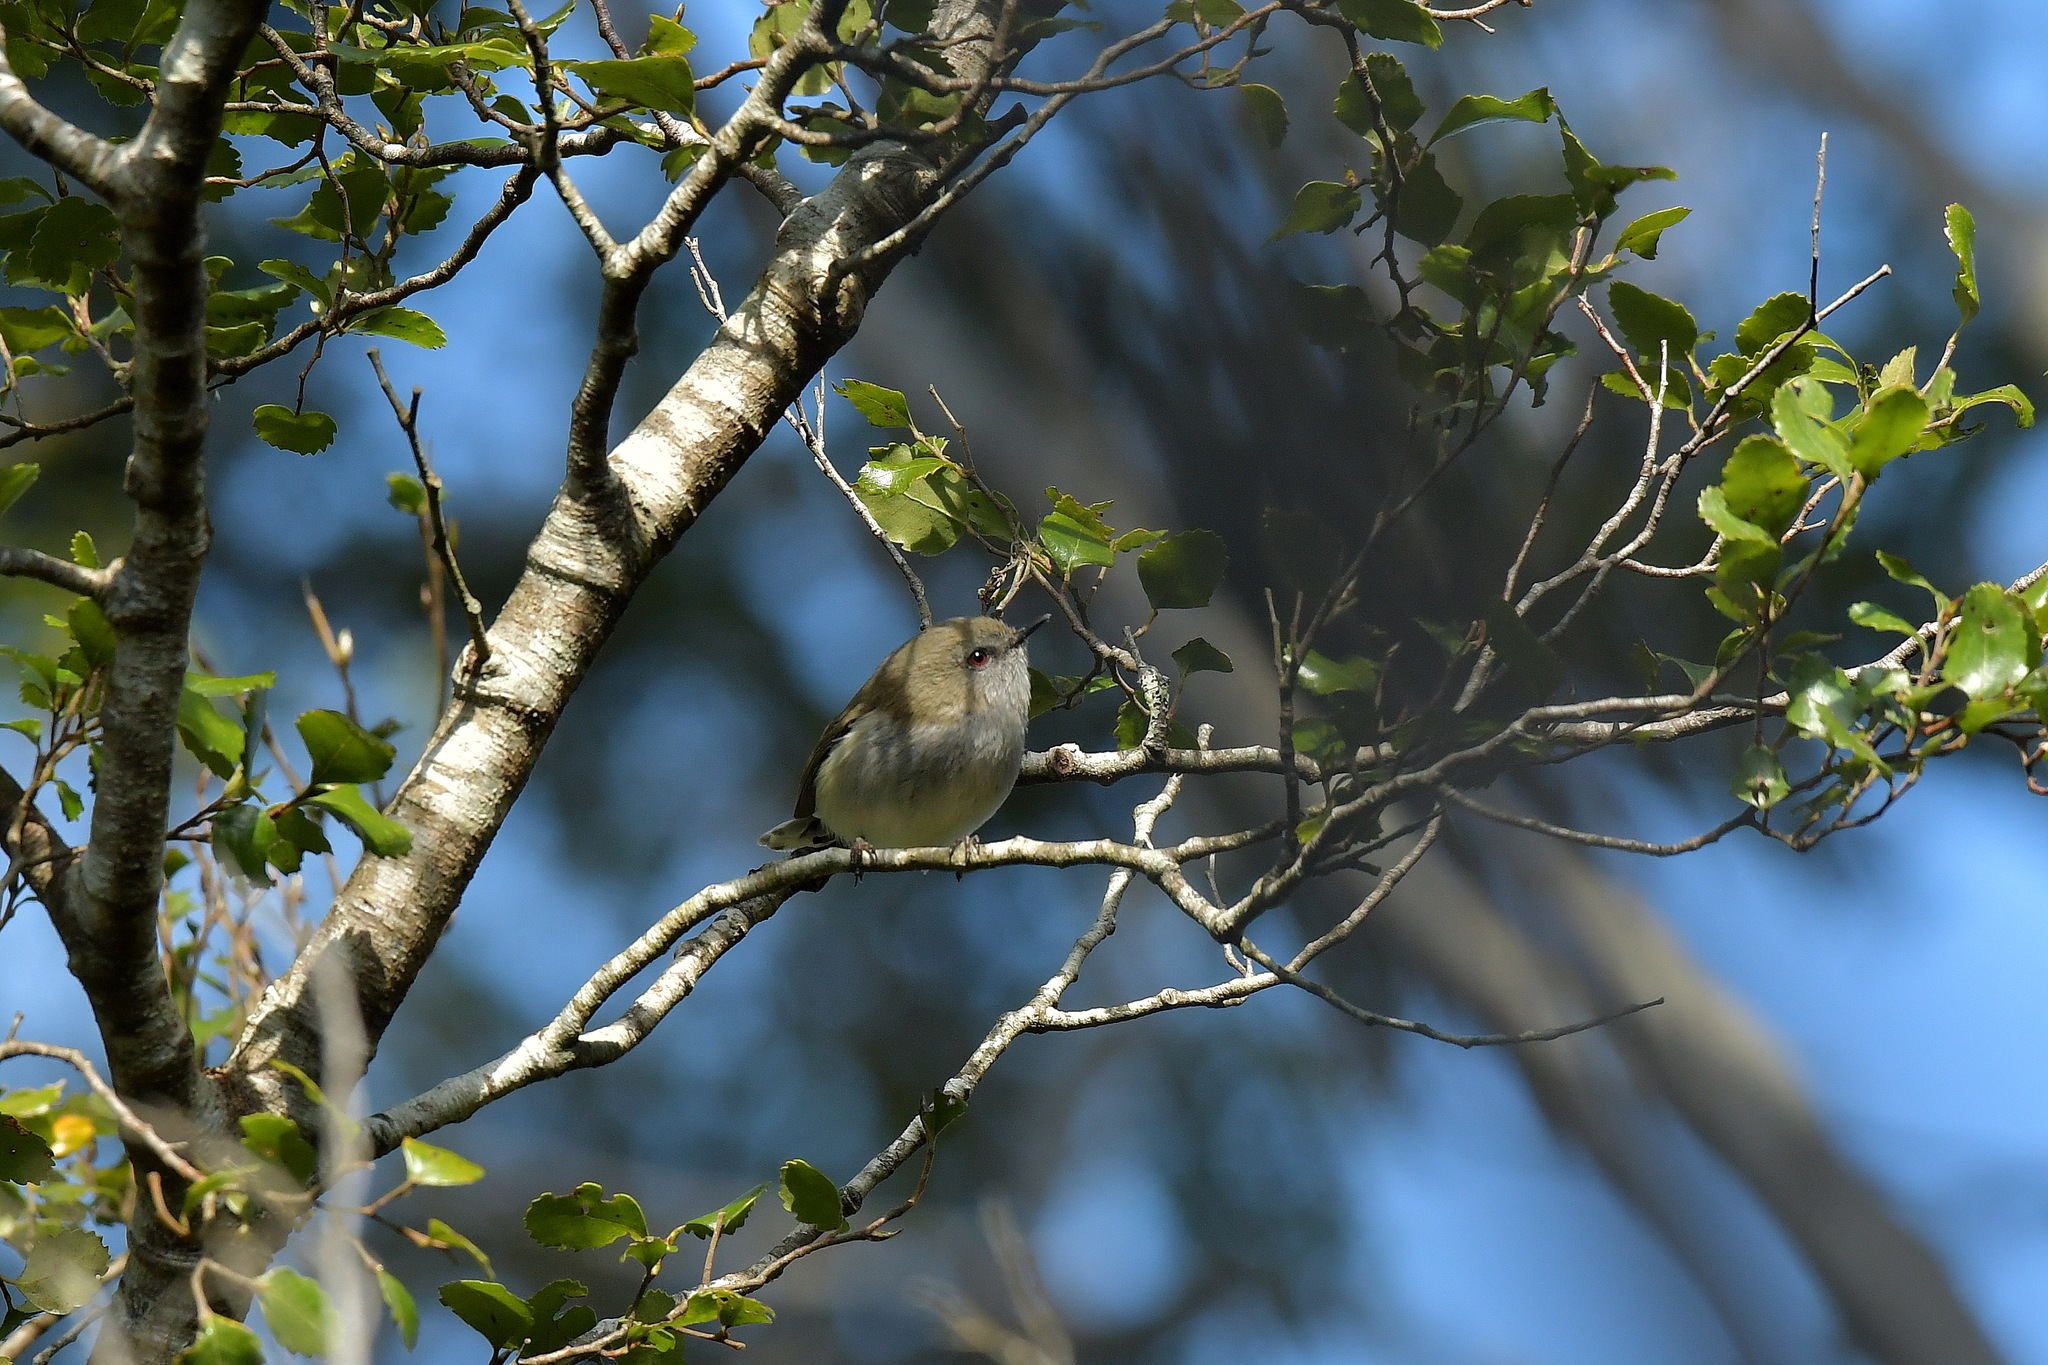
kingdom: Animalia
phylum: Chordata
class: Aves
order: Passeriformes
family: Acanthizidae
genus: Gerygone
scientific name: Gerygone igata
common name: Grey gerygone
